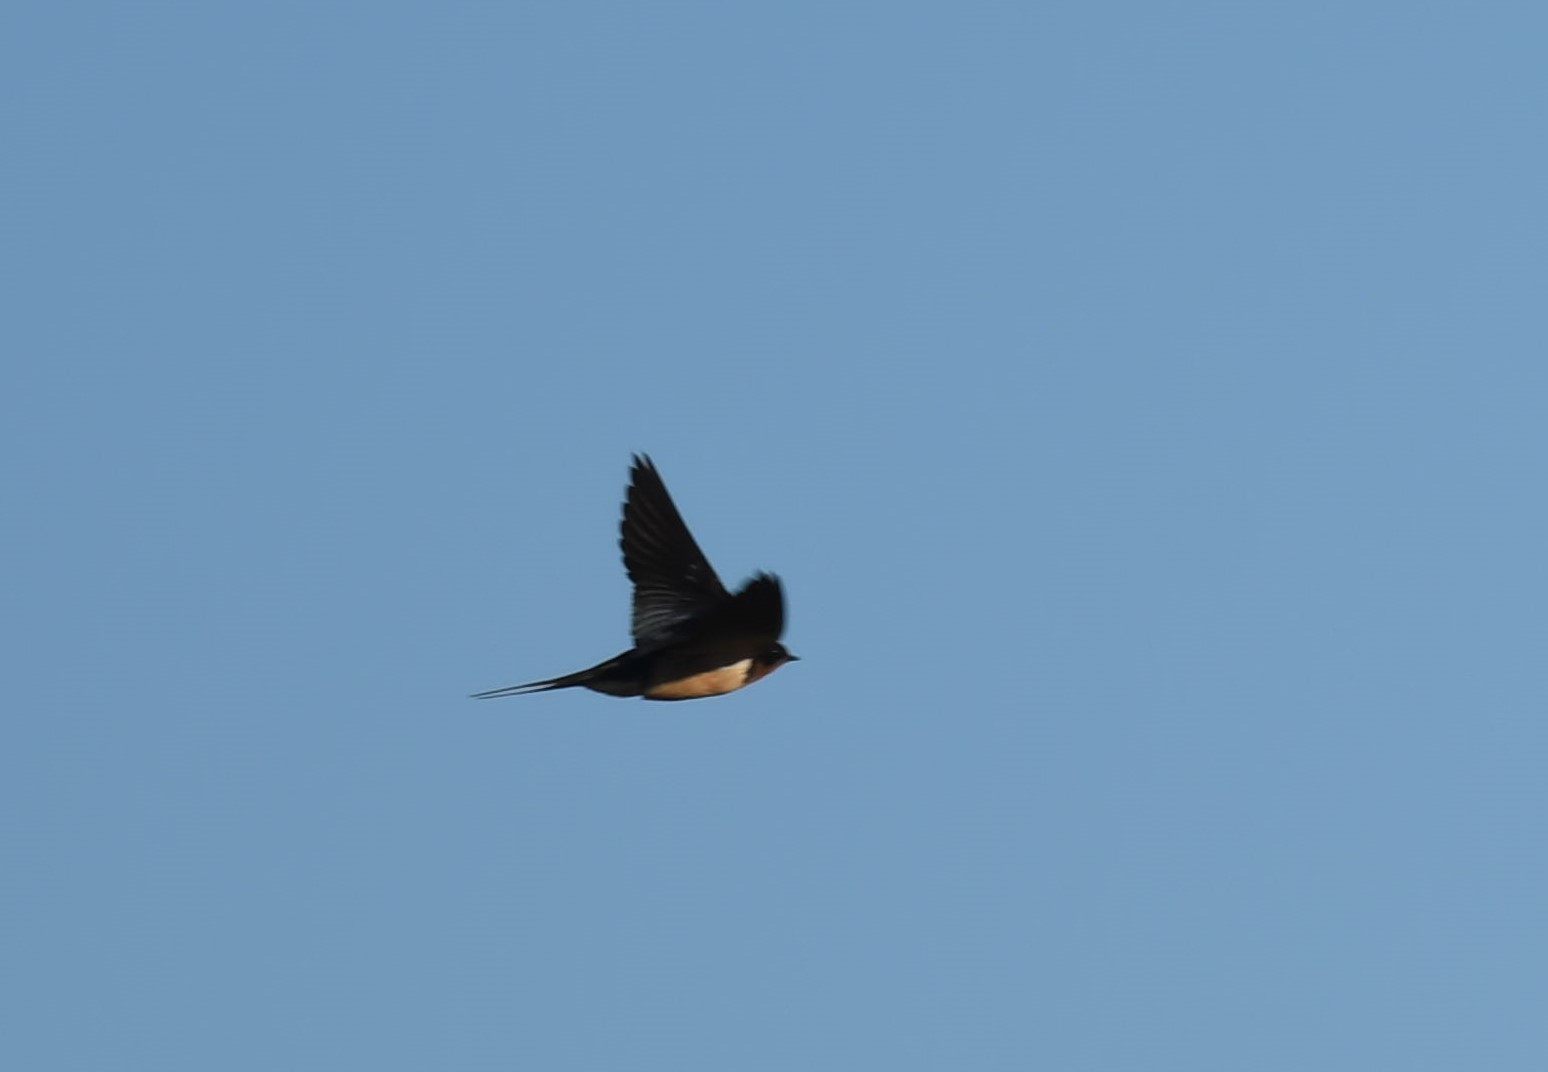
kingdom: Animalia
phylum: Chordata
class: Aves
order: Passeriformes
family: Hirundinidae
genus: Hirundo
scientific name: Hirundo rustica
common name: Barn swallow
